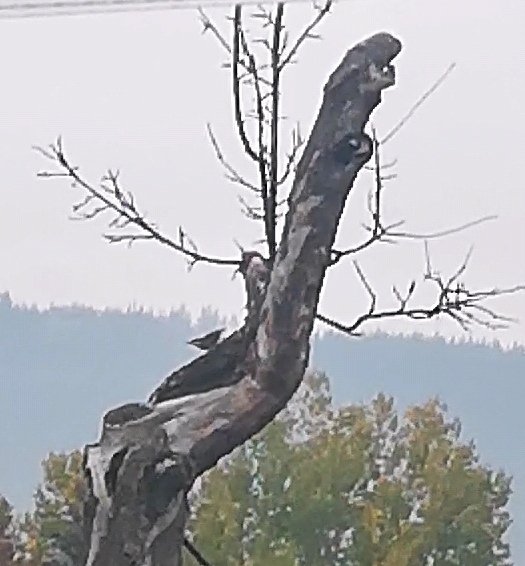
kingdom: Animalia
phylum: Chordata
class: Aves
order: Passeriformes
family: Sittidae
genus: Sitta
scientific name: Sitta europaea
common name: Eurasian nuthatch
